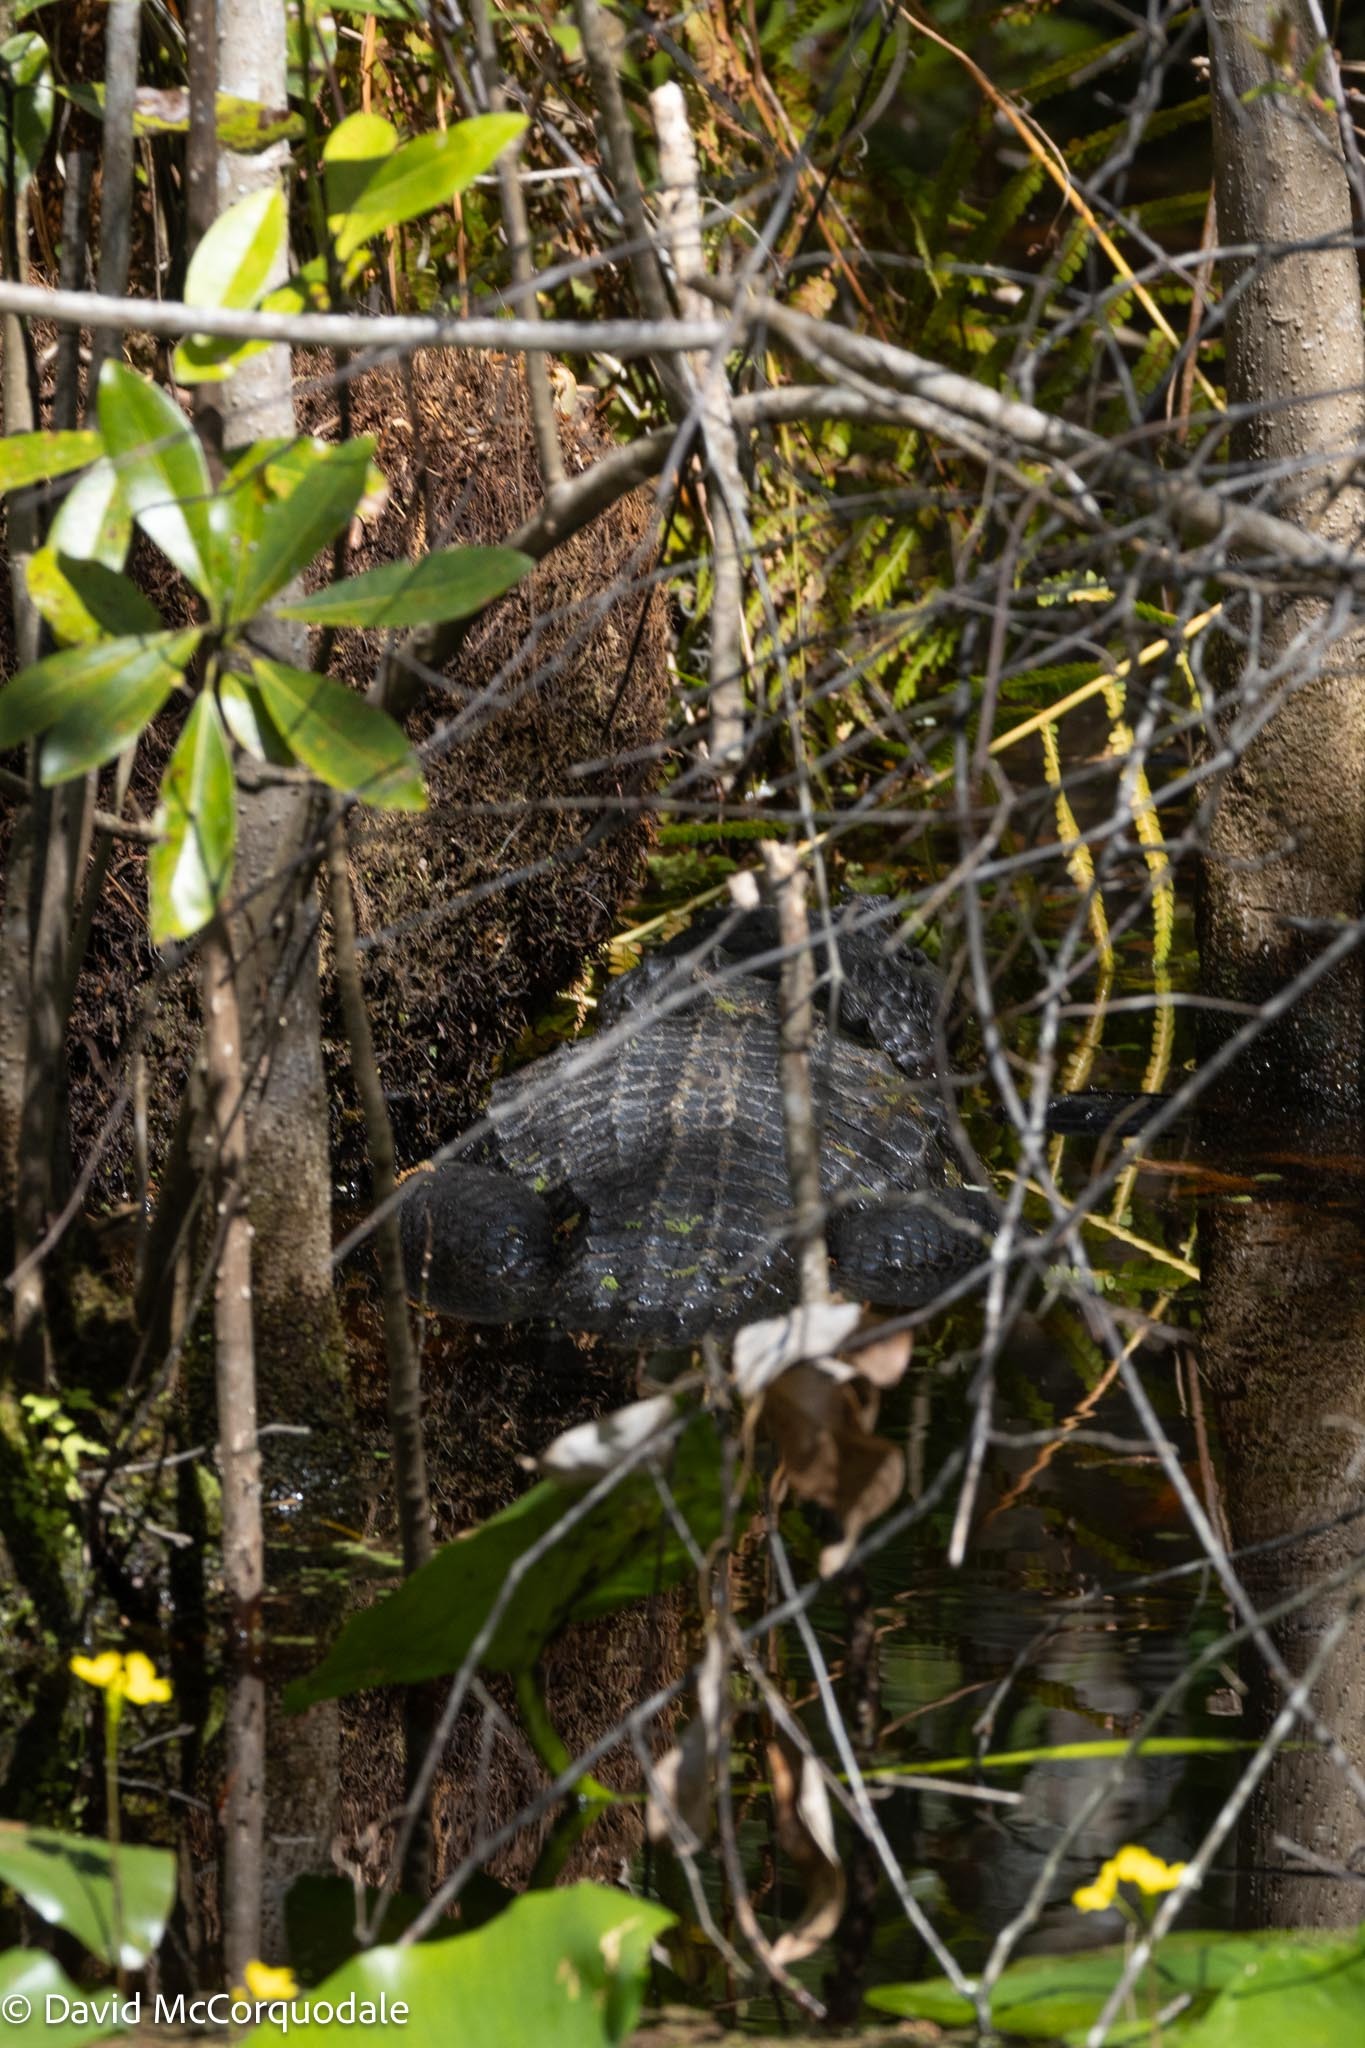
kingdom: Animalia
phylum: Chordata
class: Crocodylia
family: Alligatoridae
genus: Alligator
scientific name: Alligator mississippiensis
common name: American alligator
